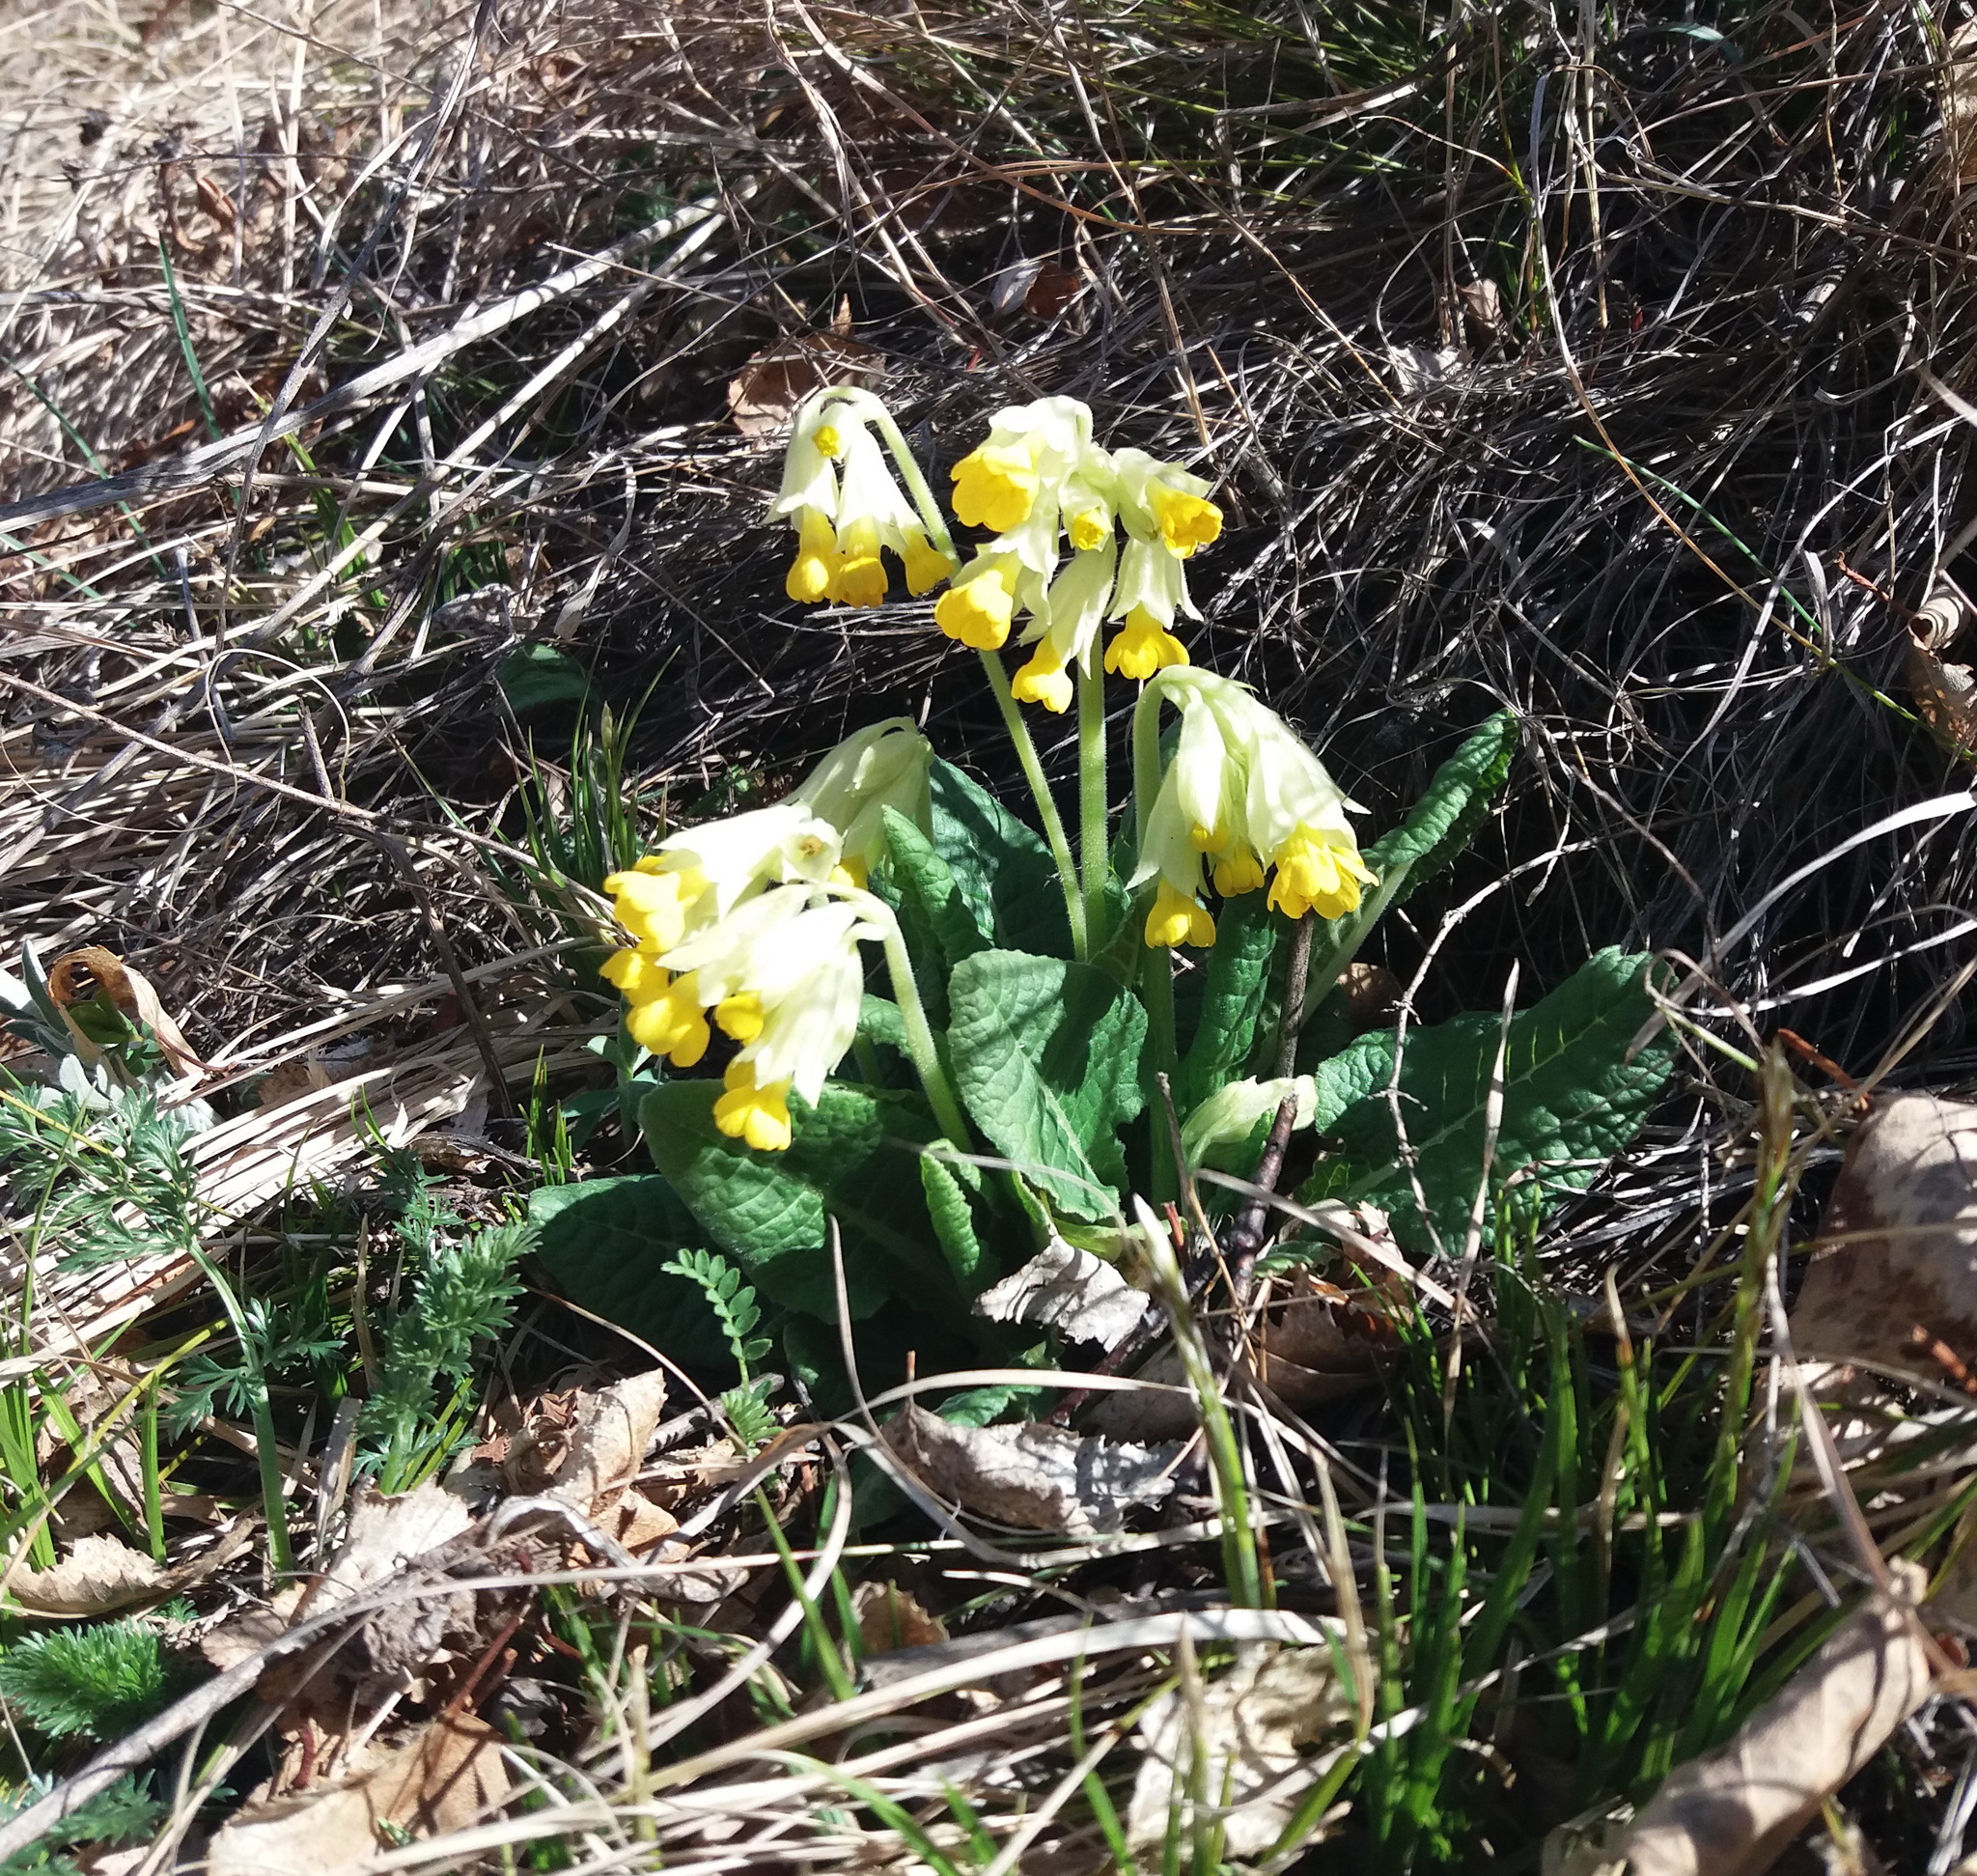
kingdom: Plantae
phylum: Tracheophyta
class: Magnoliopsida
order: Ericales
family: Primulaceae
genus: Primula
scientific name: Primula veris
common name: Cowslip
